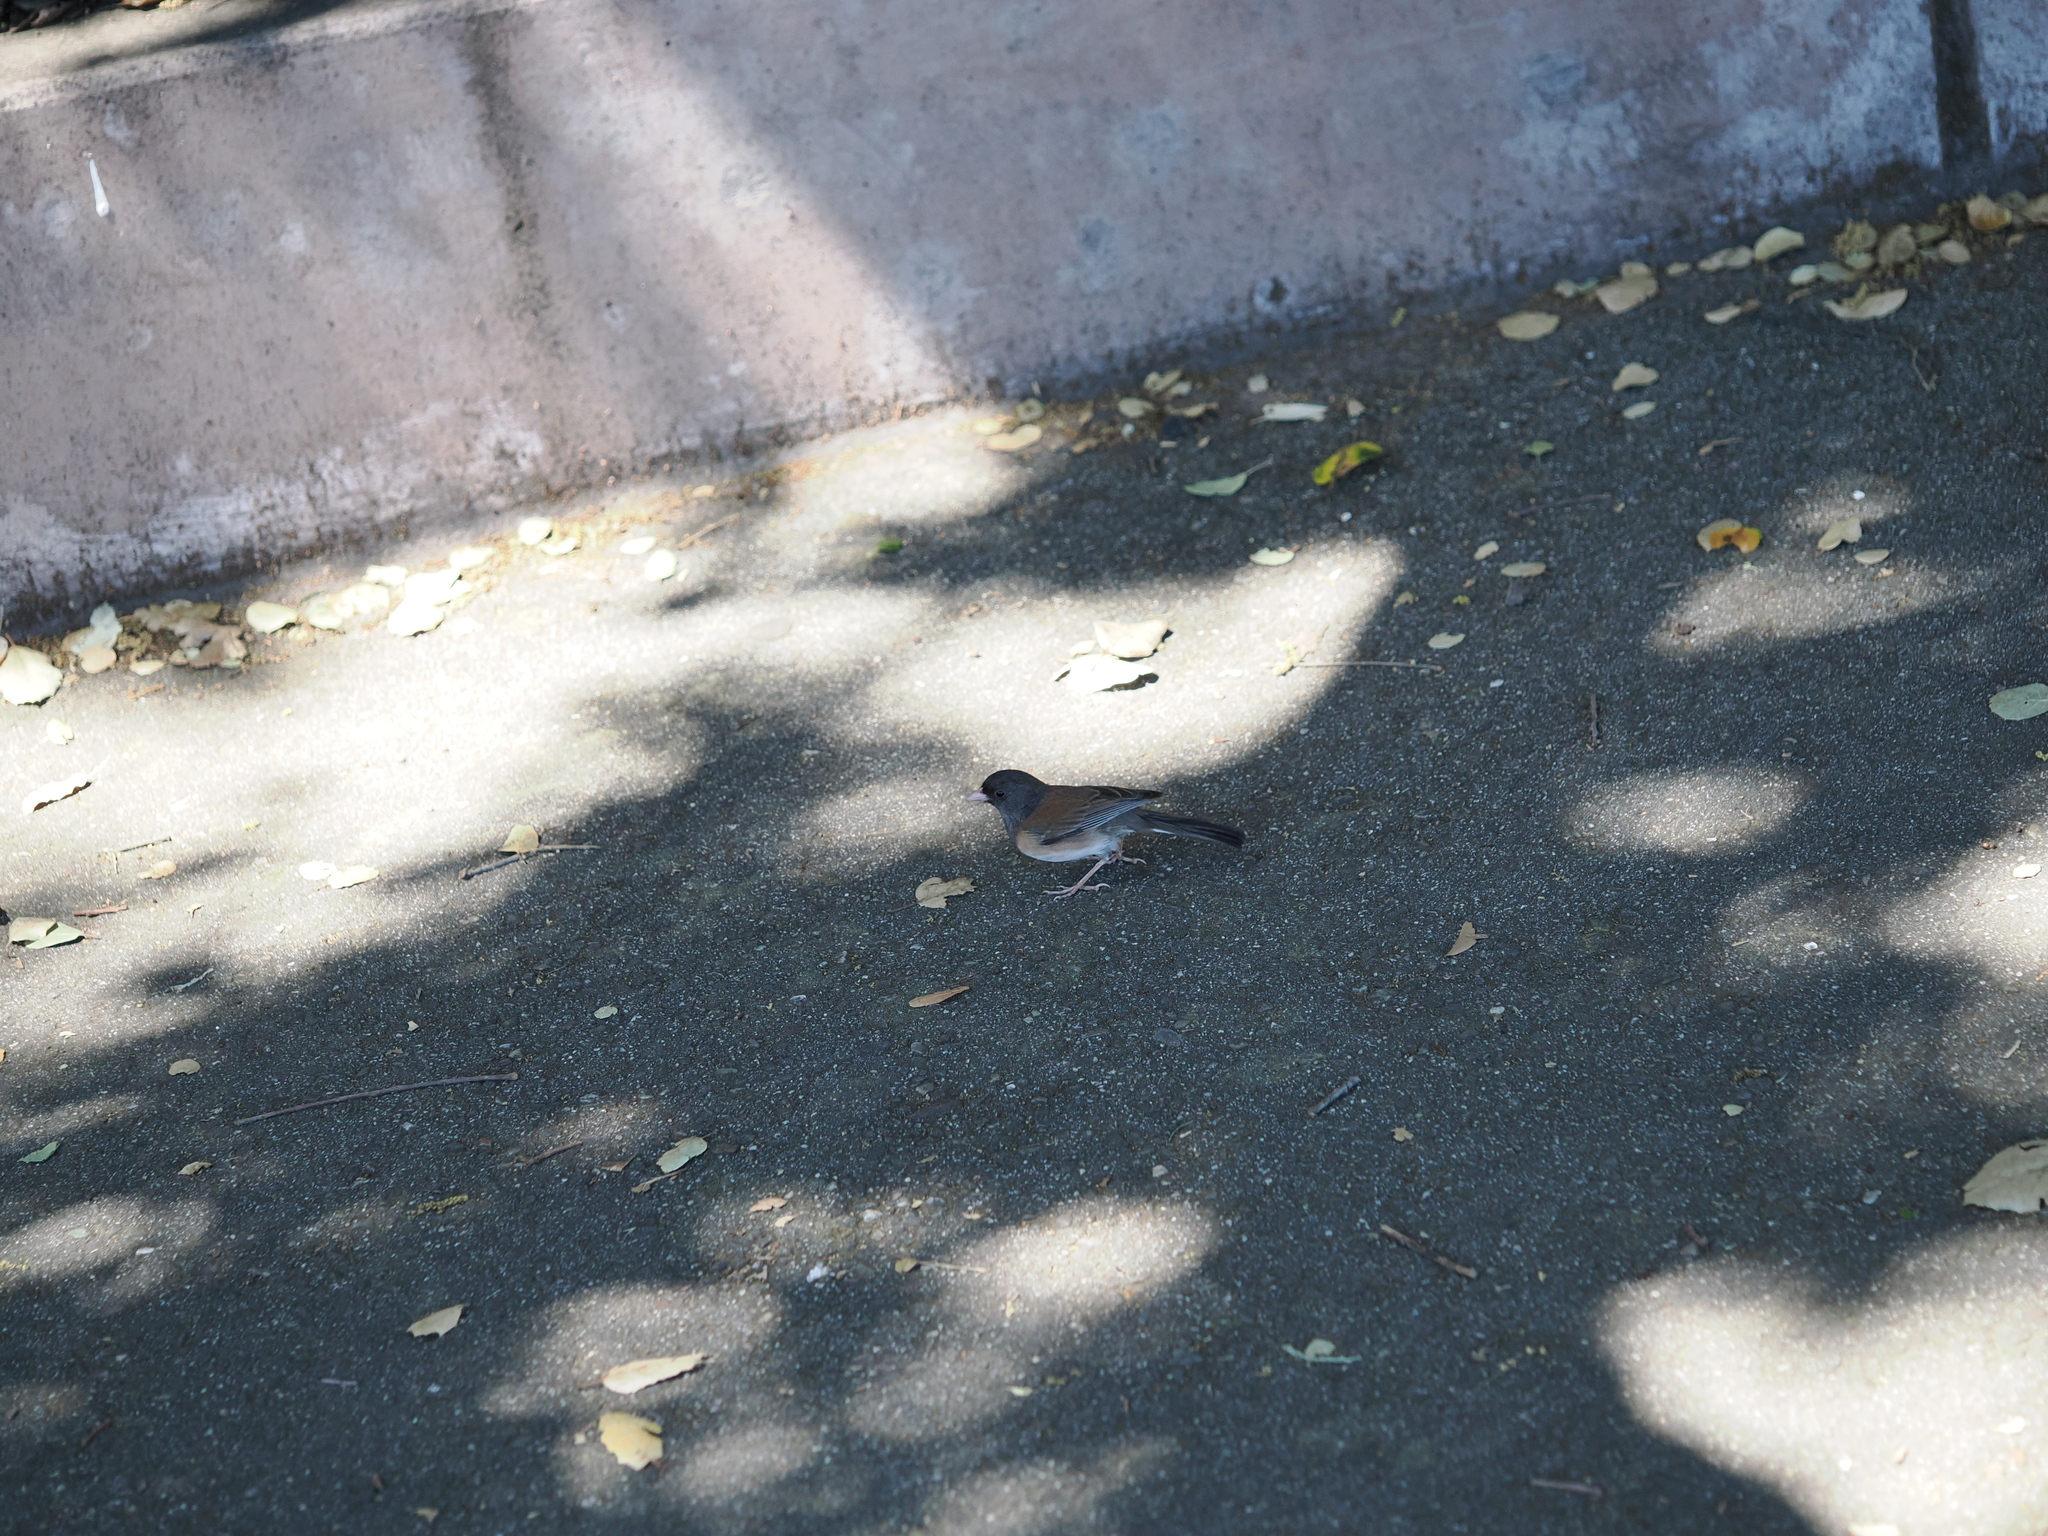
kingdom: Animalia
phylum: Chordata
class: Aves
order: Passeriformes
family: Passerellidae
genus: Junco
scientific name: Junco hyemalis
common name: Dark-eyed junco
